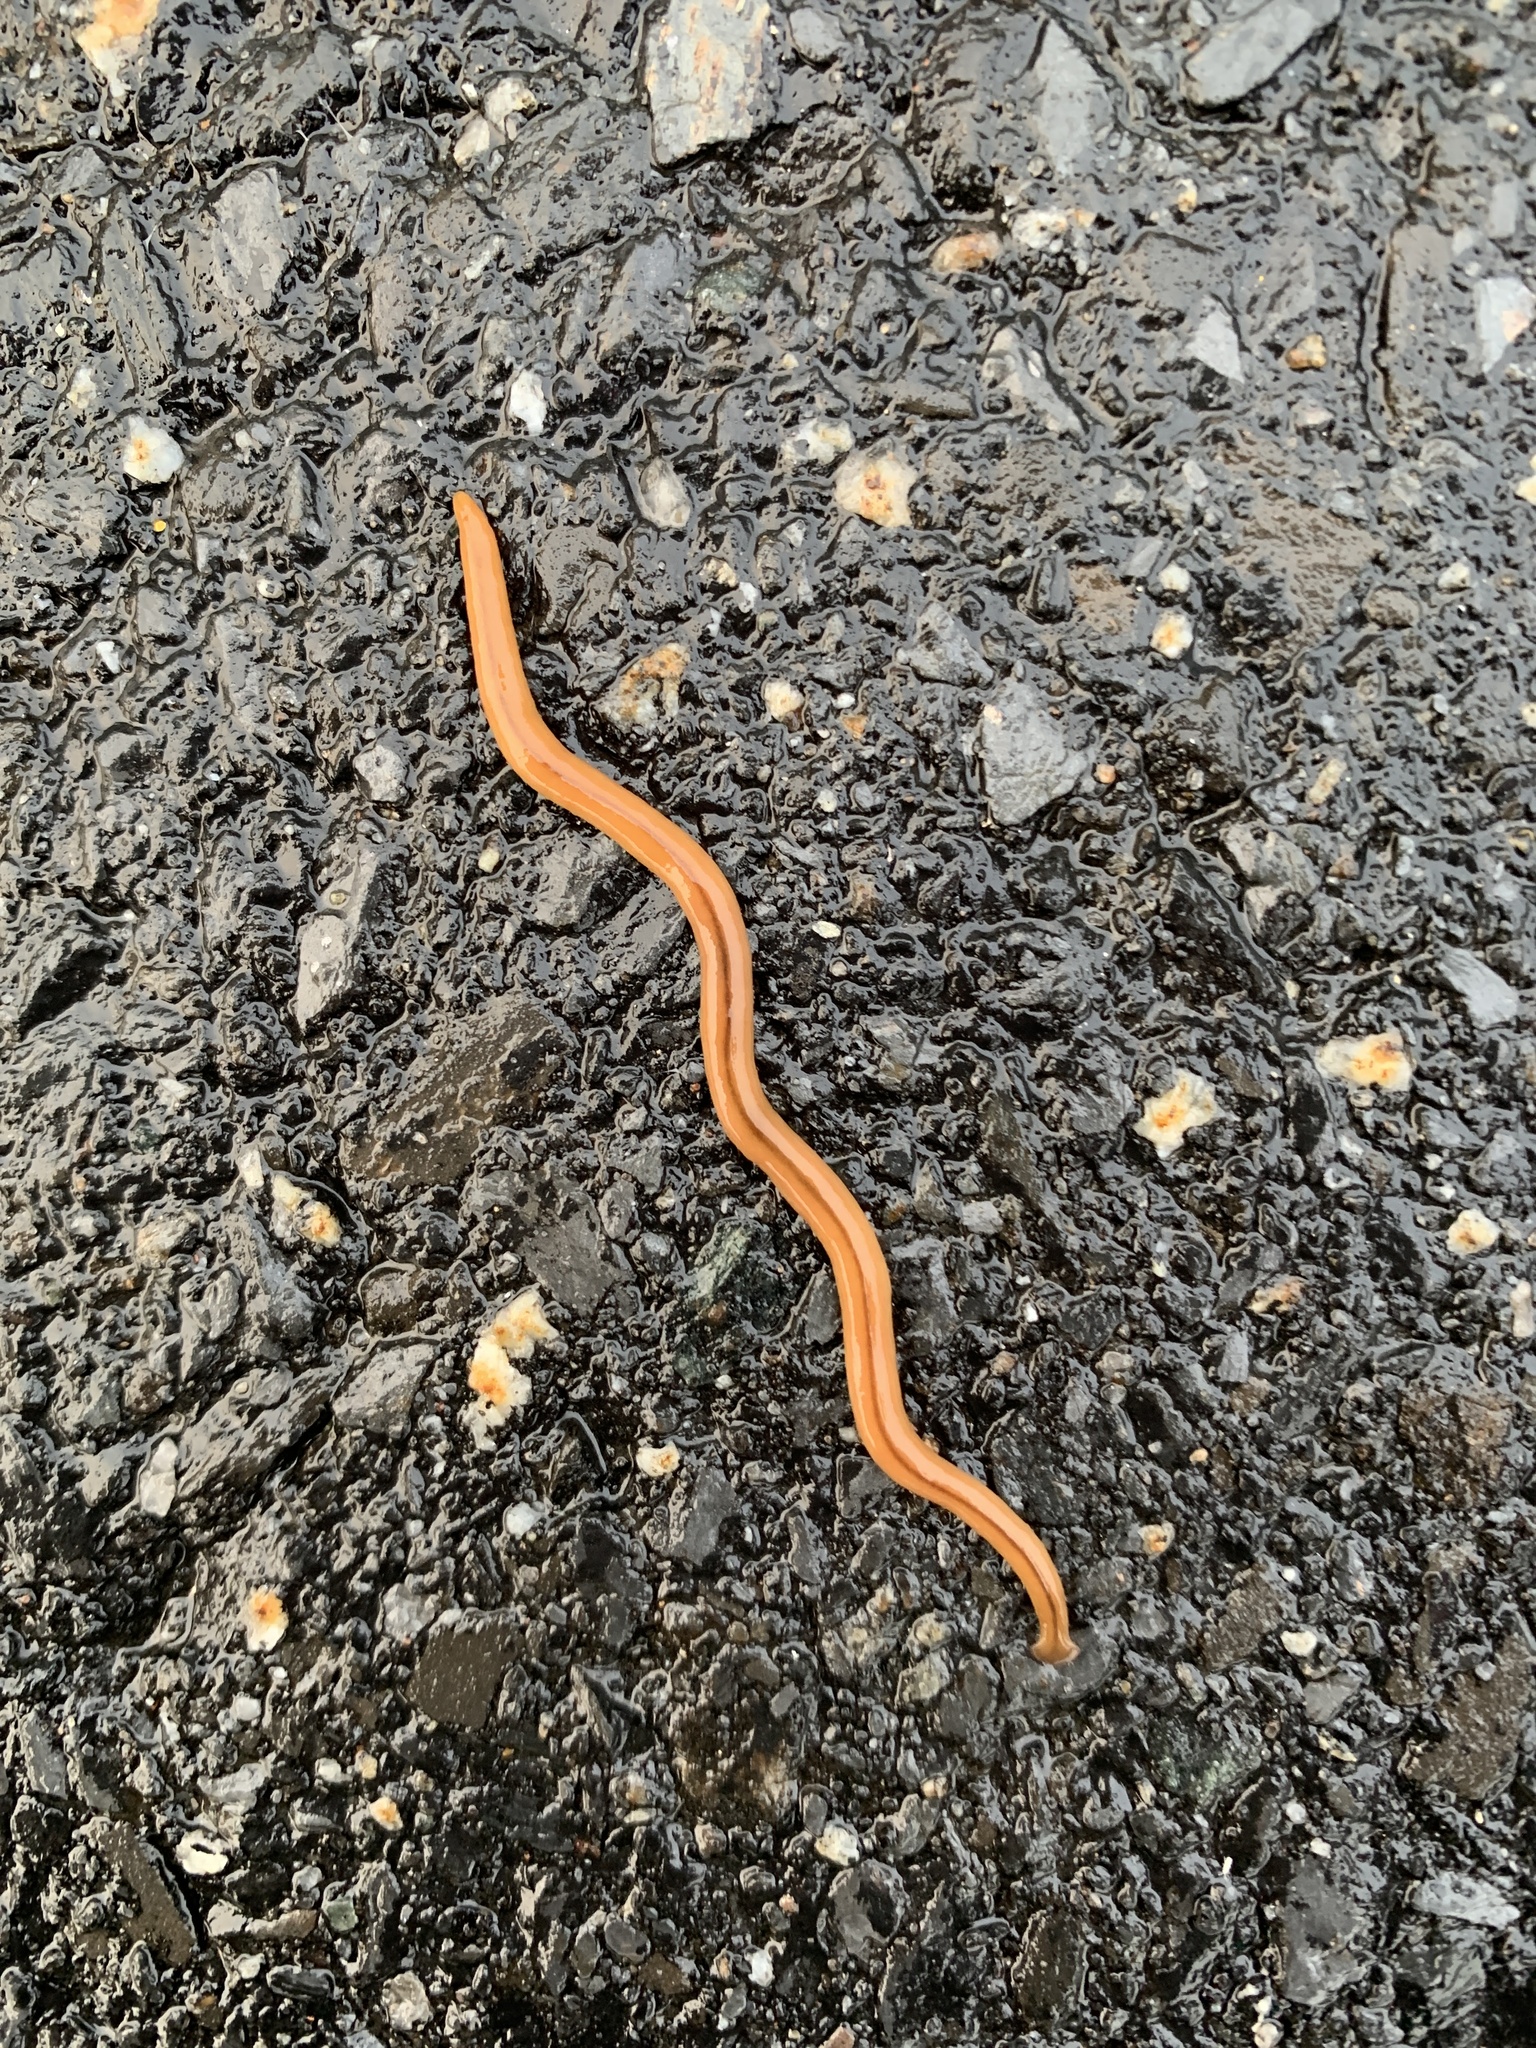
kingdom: Animalia
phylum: Platyhelminthes
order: Tricladida
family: Geoplanidae
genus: Bipalium
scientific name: Bipalium adventitium
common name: Land planarian
